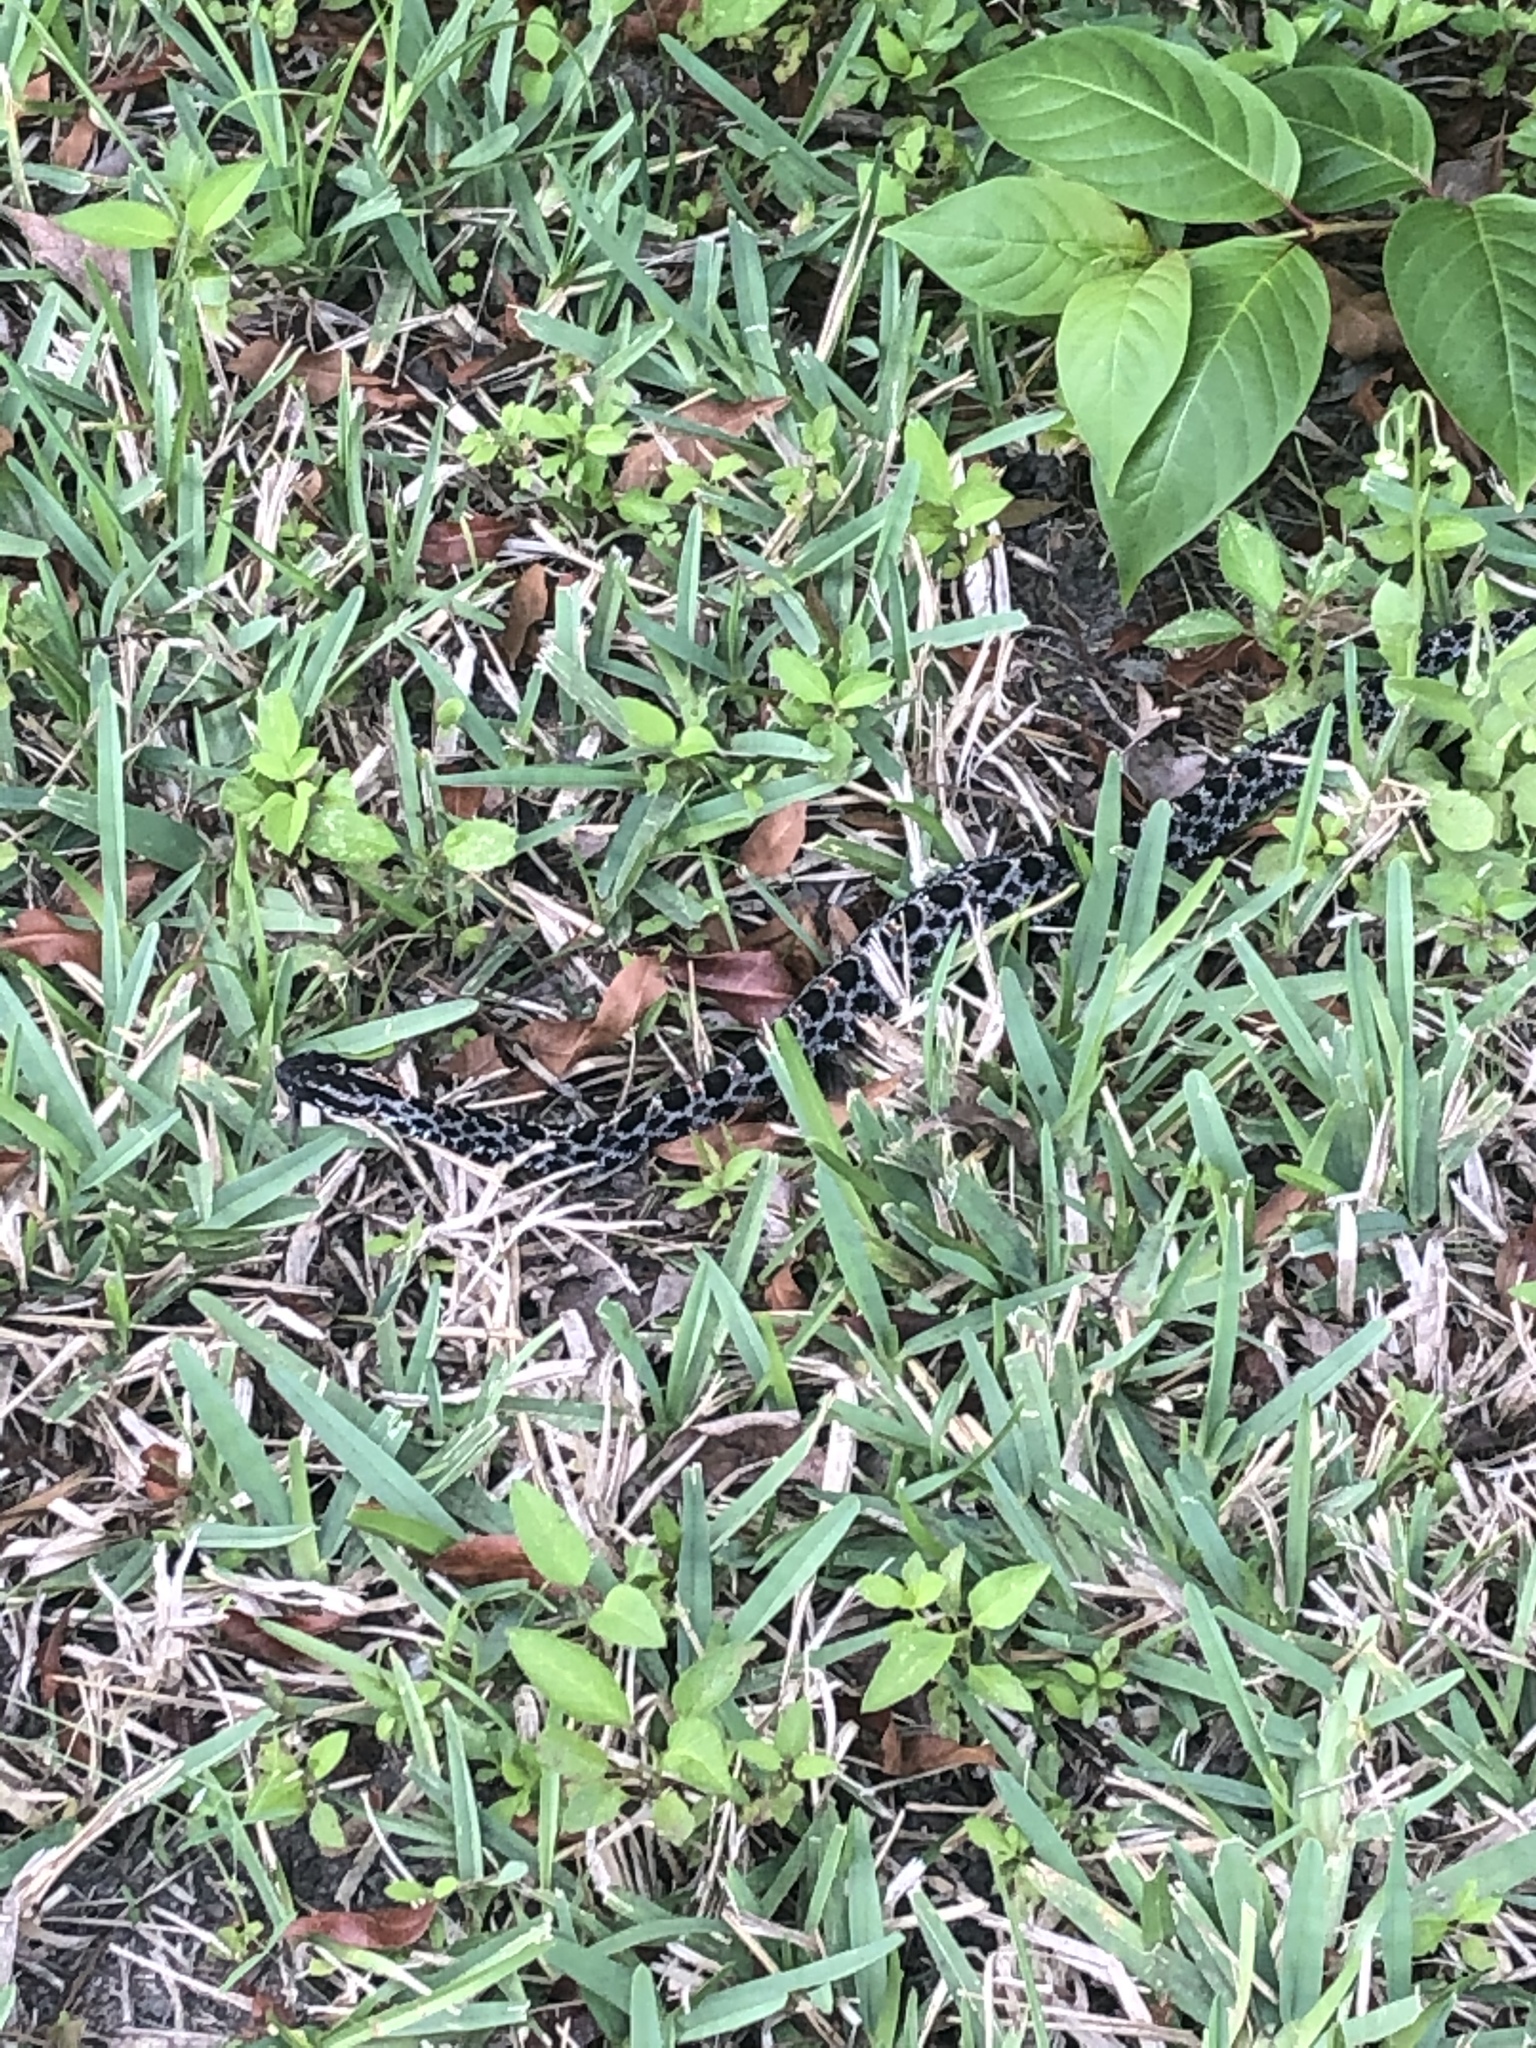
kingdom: Animalia
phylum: Chordata
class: Squamata
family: Viperidae
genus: Sistrurus
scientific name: Sistrurus miliarius
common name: Pygmy rattlesnake
